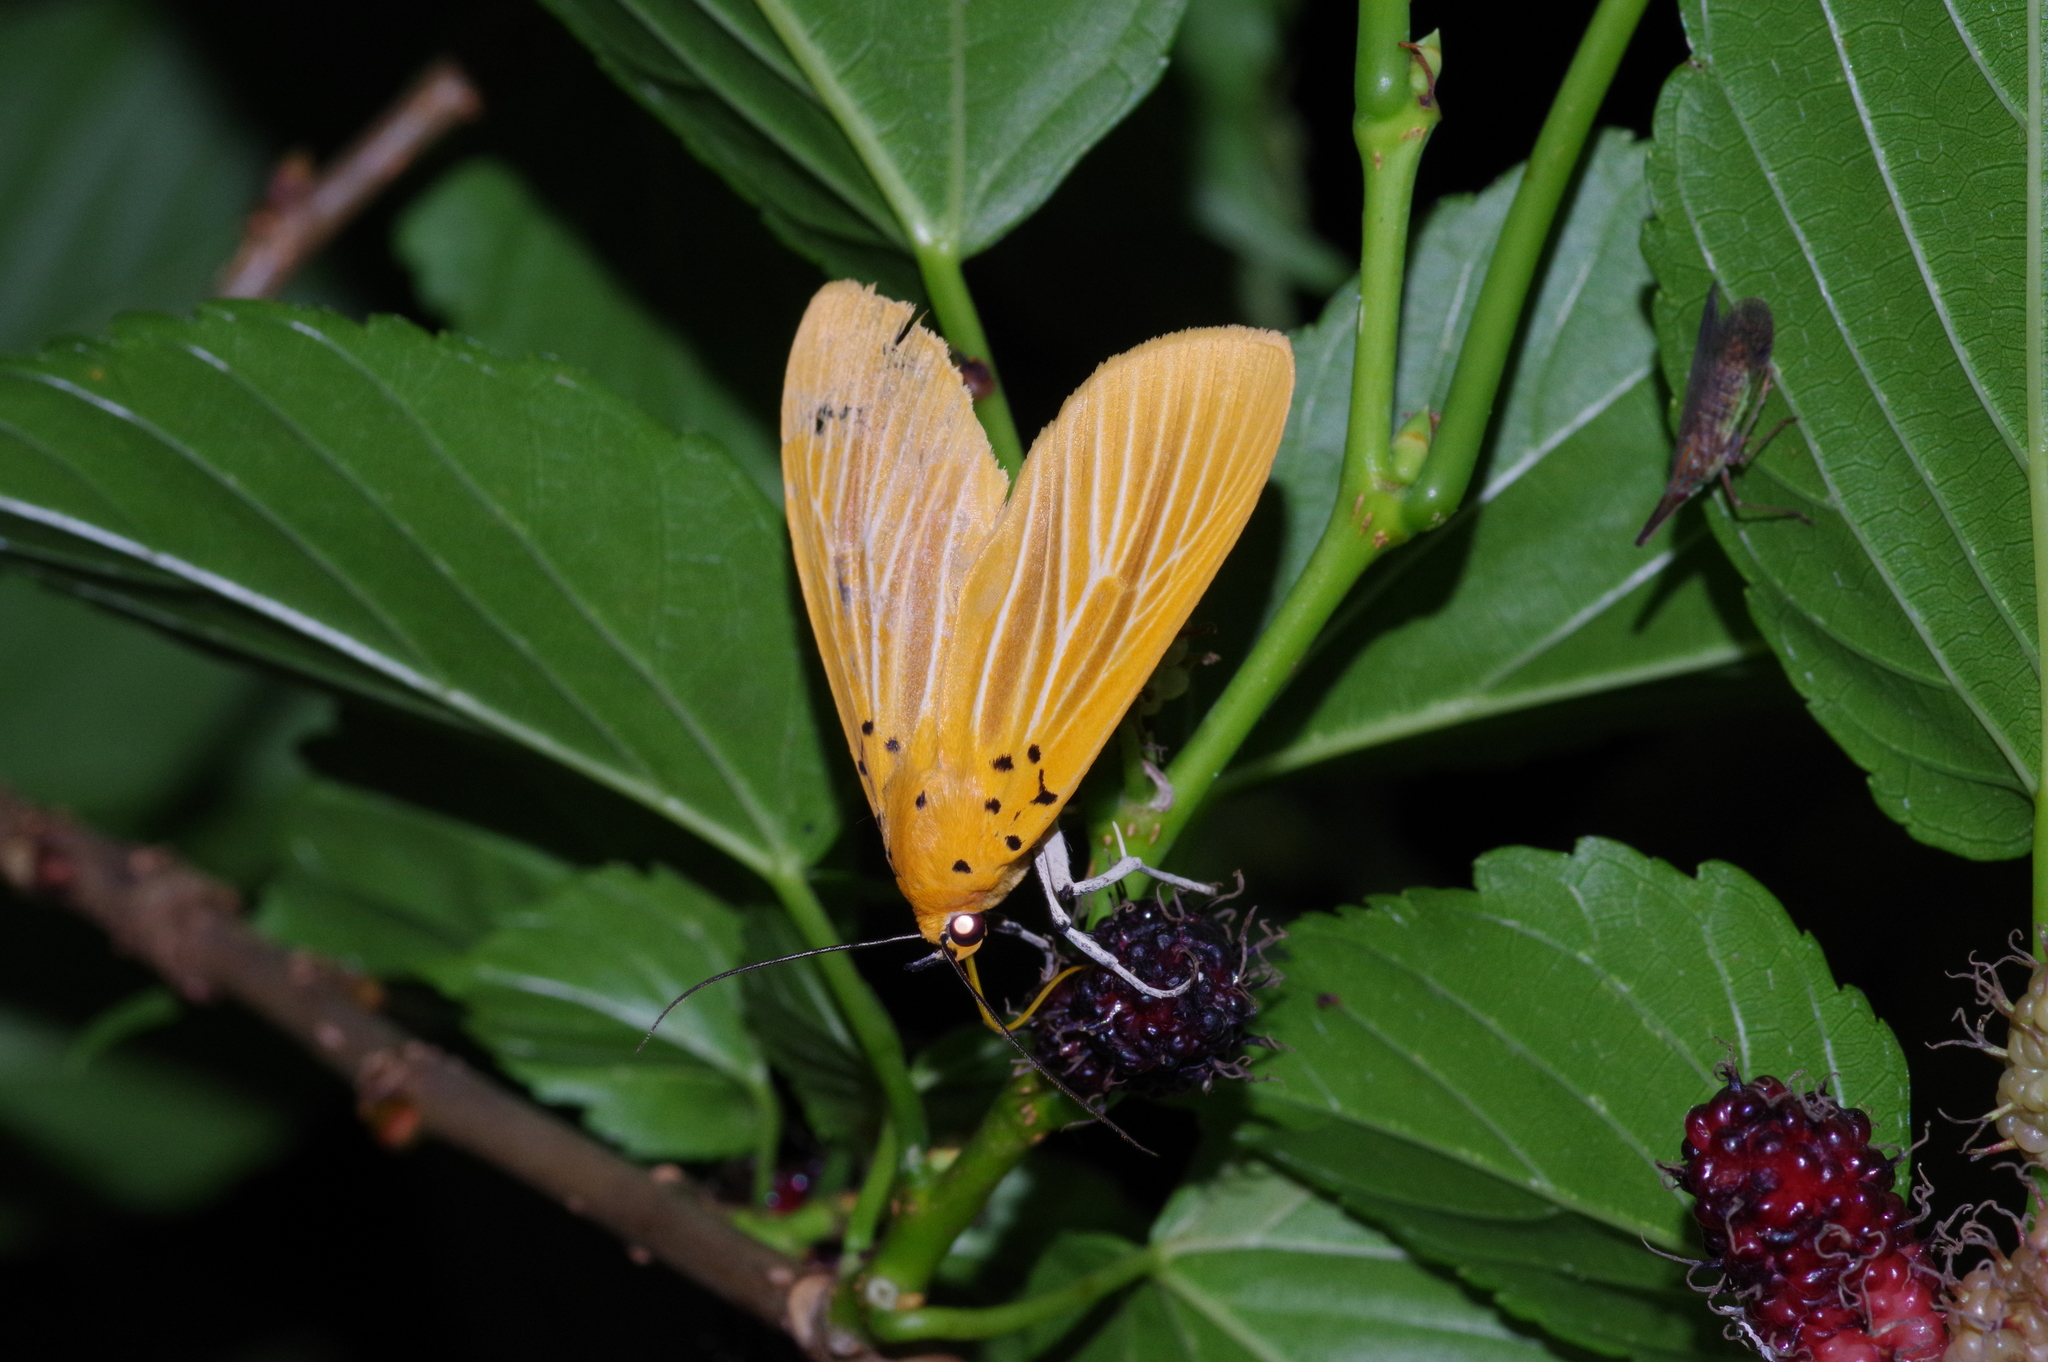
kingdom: Animalia
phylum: Arthropoda
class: Insecta
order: Lepidoptera
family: Erebidae
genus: Asota
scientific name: Asota egens
